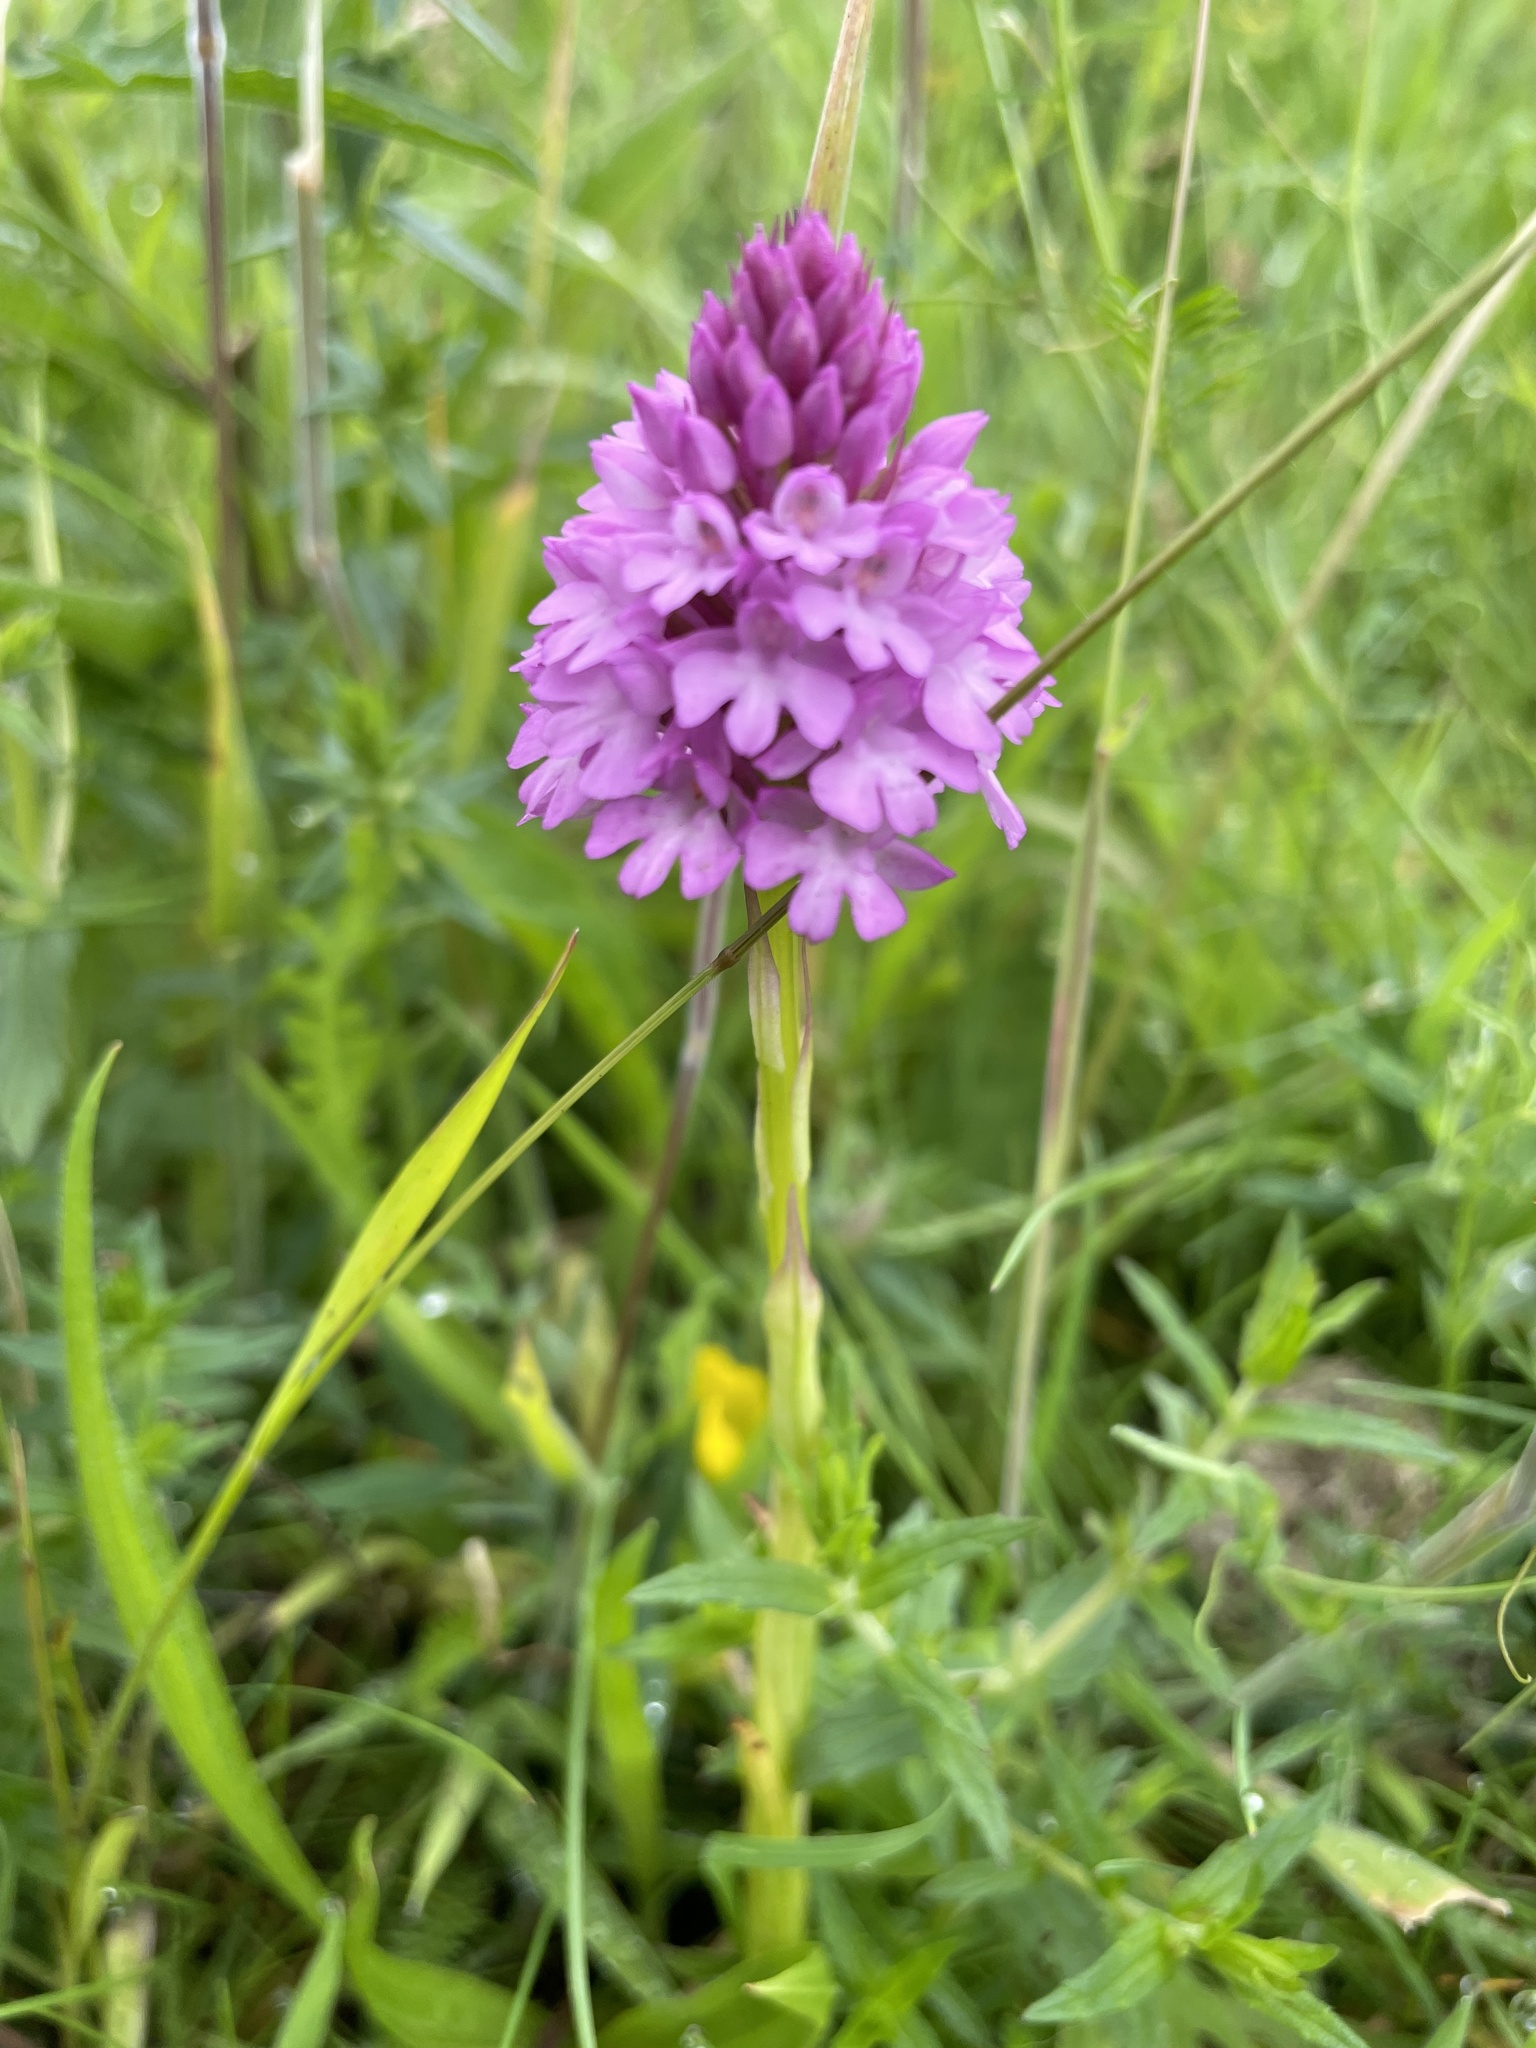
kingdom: Plantae
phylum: Tracheophyta
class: Liliopsida
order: Asparagales
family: Orchidaceae
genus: Anacamptis
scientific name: Anacamptis pyramidalis
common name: Pyramidal orchid
